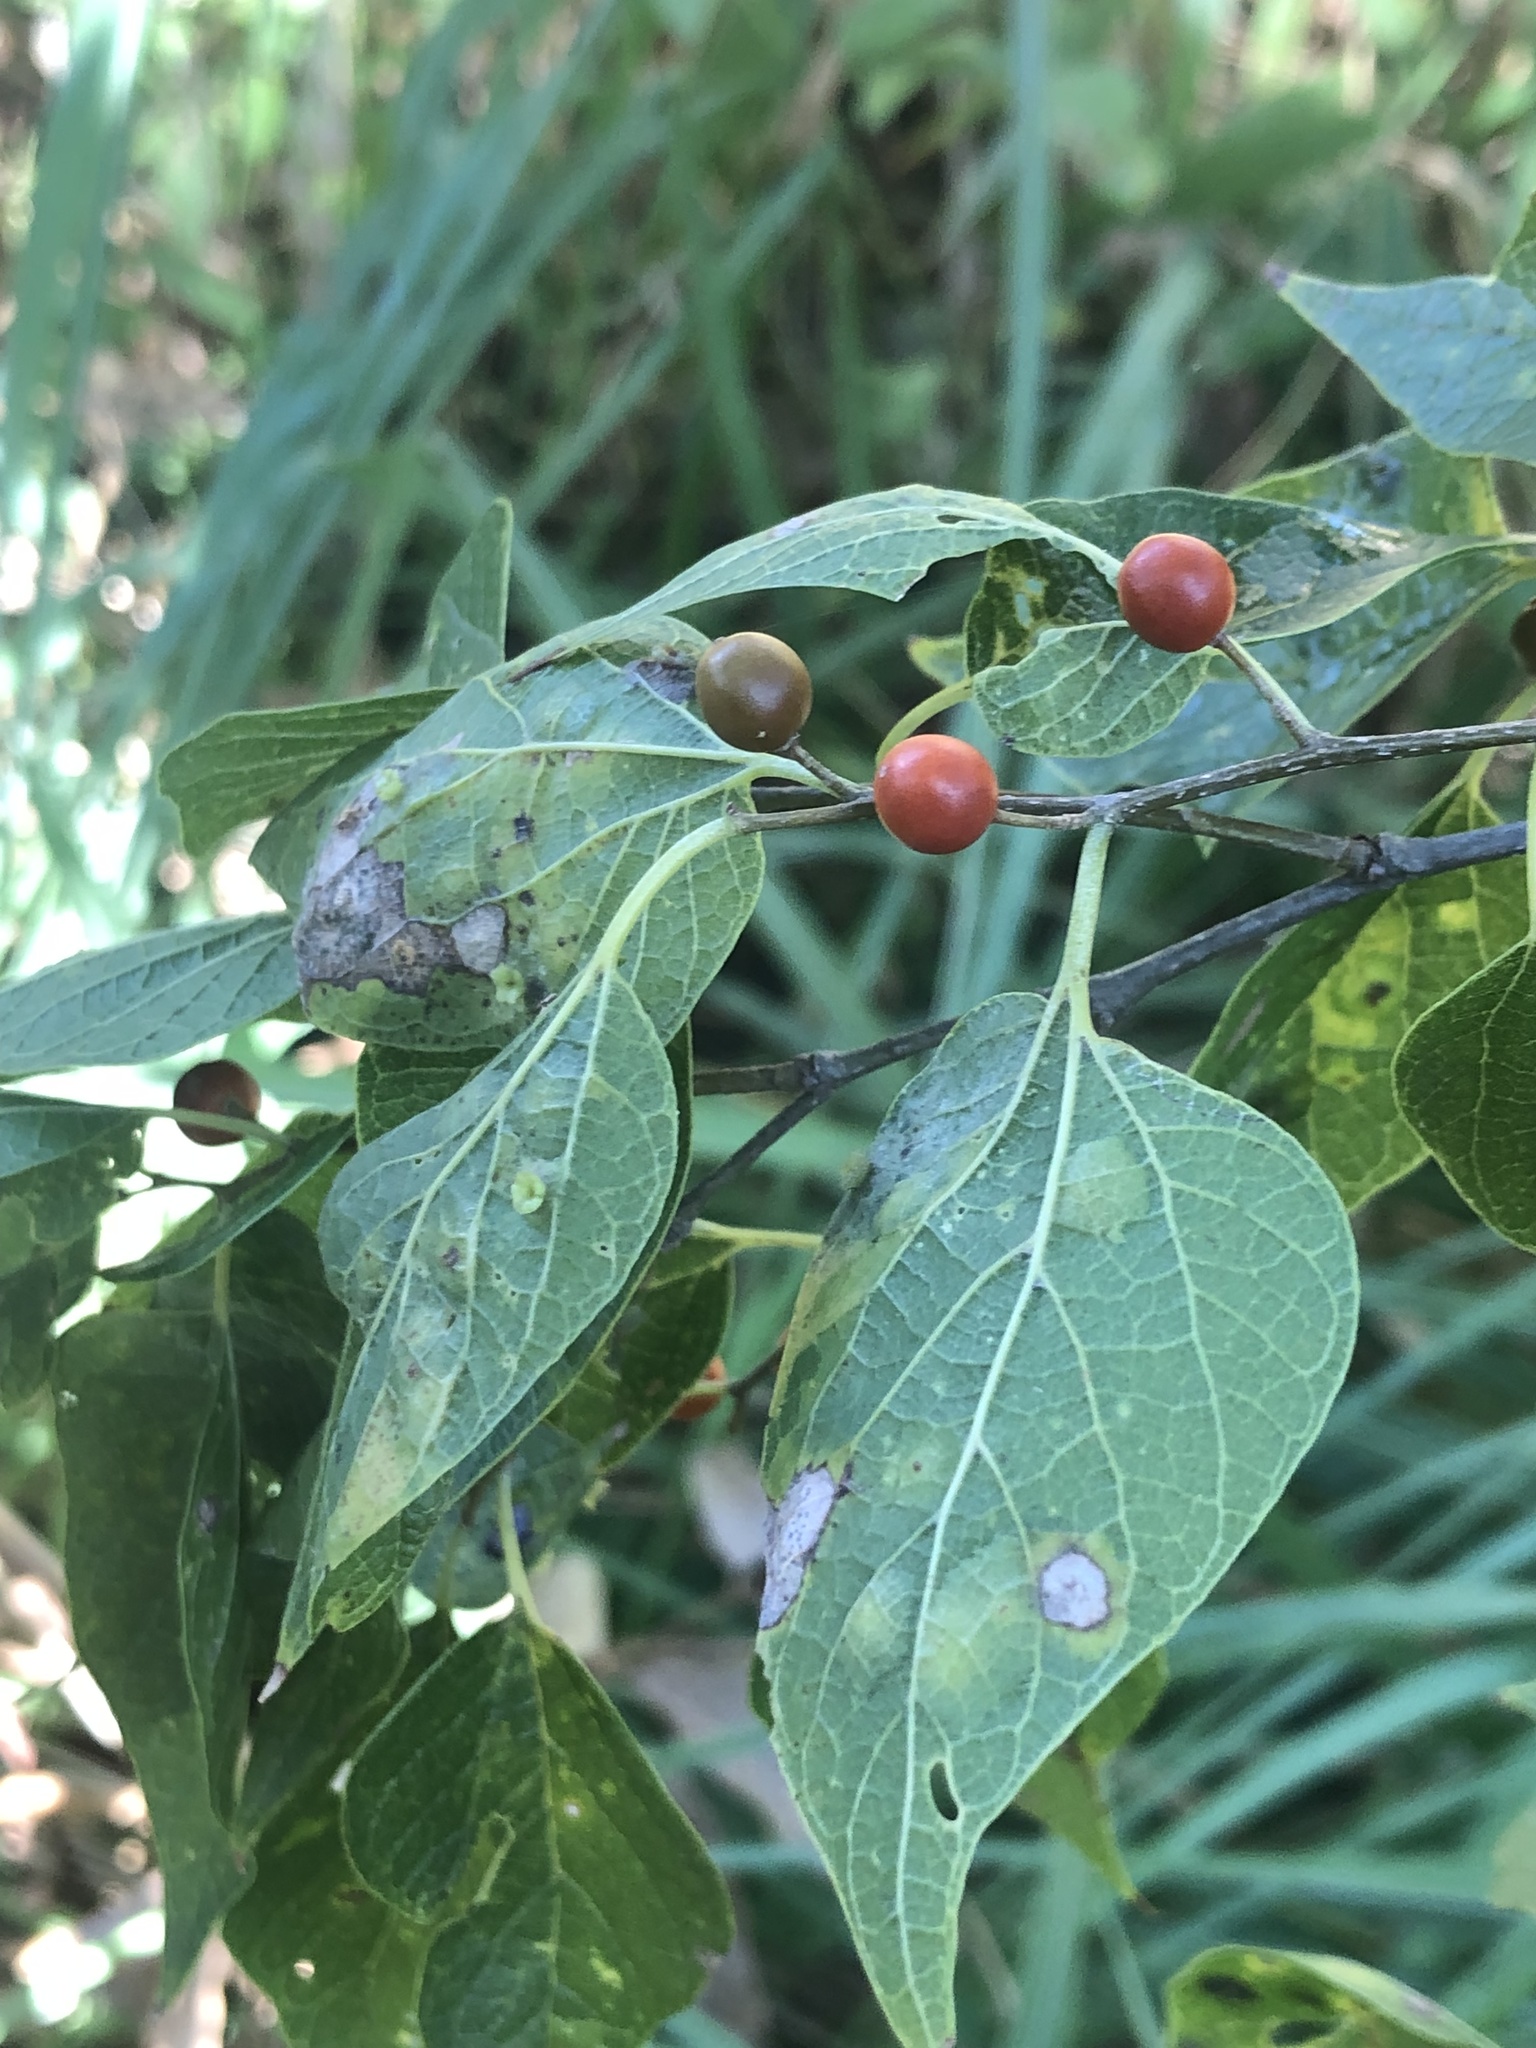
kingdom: Plantae
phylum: Tracheophyta
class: Magnoliopsida
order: Rosales
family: Cannabaceae
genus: Celtis
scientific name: Celtis laevigata
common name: Sugarberry
